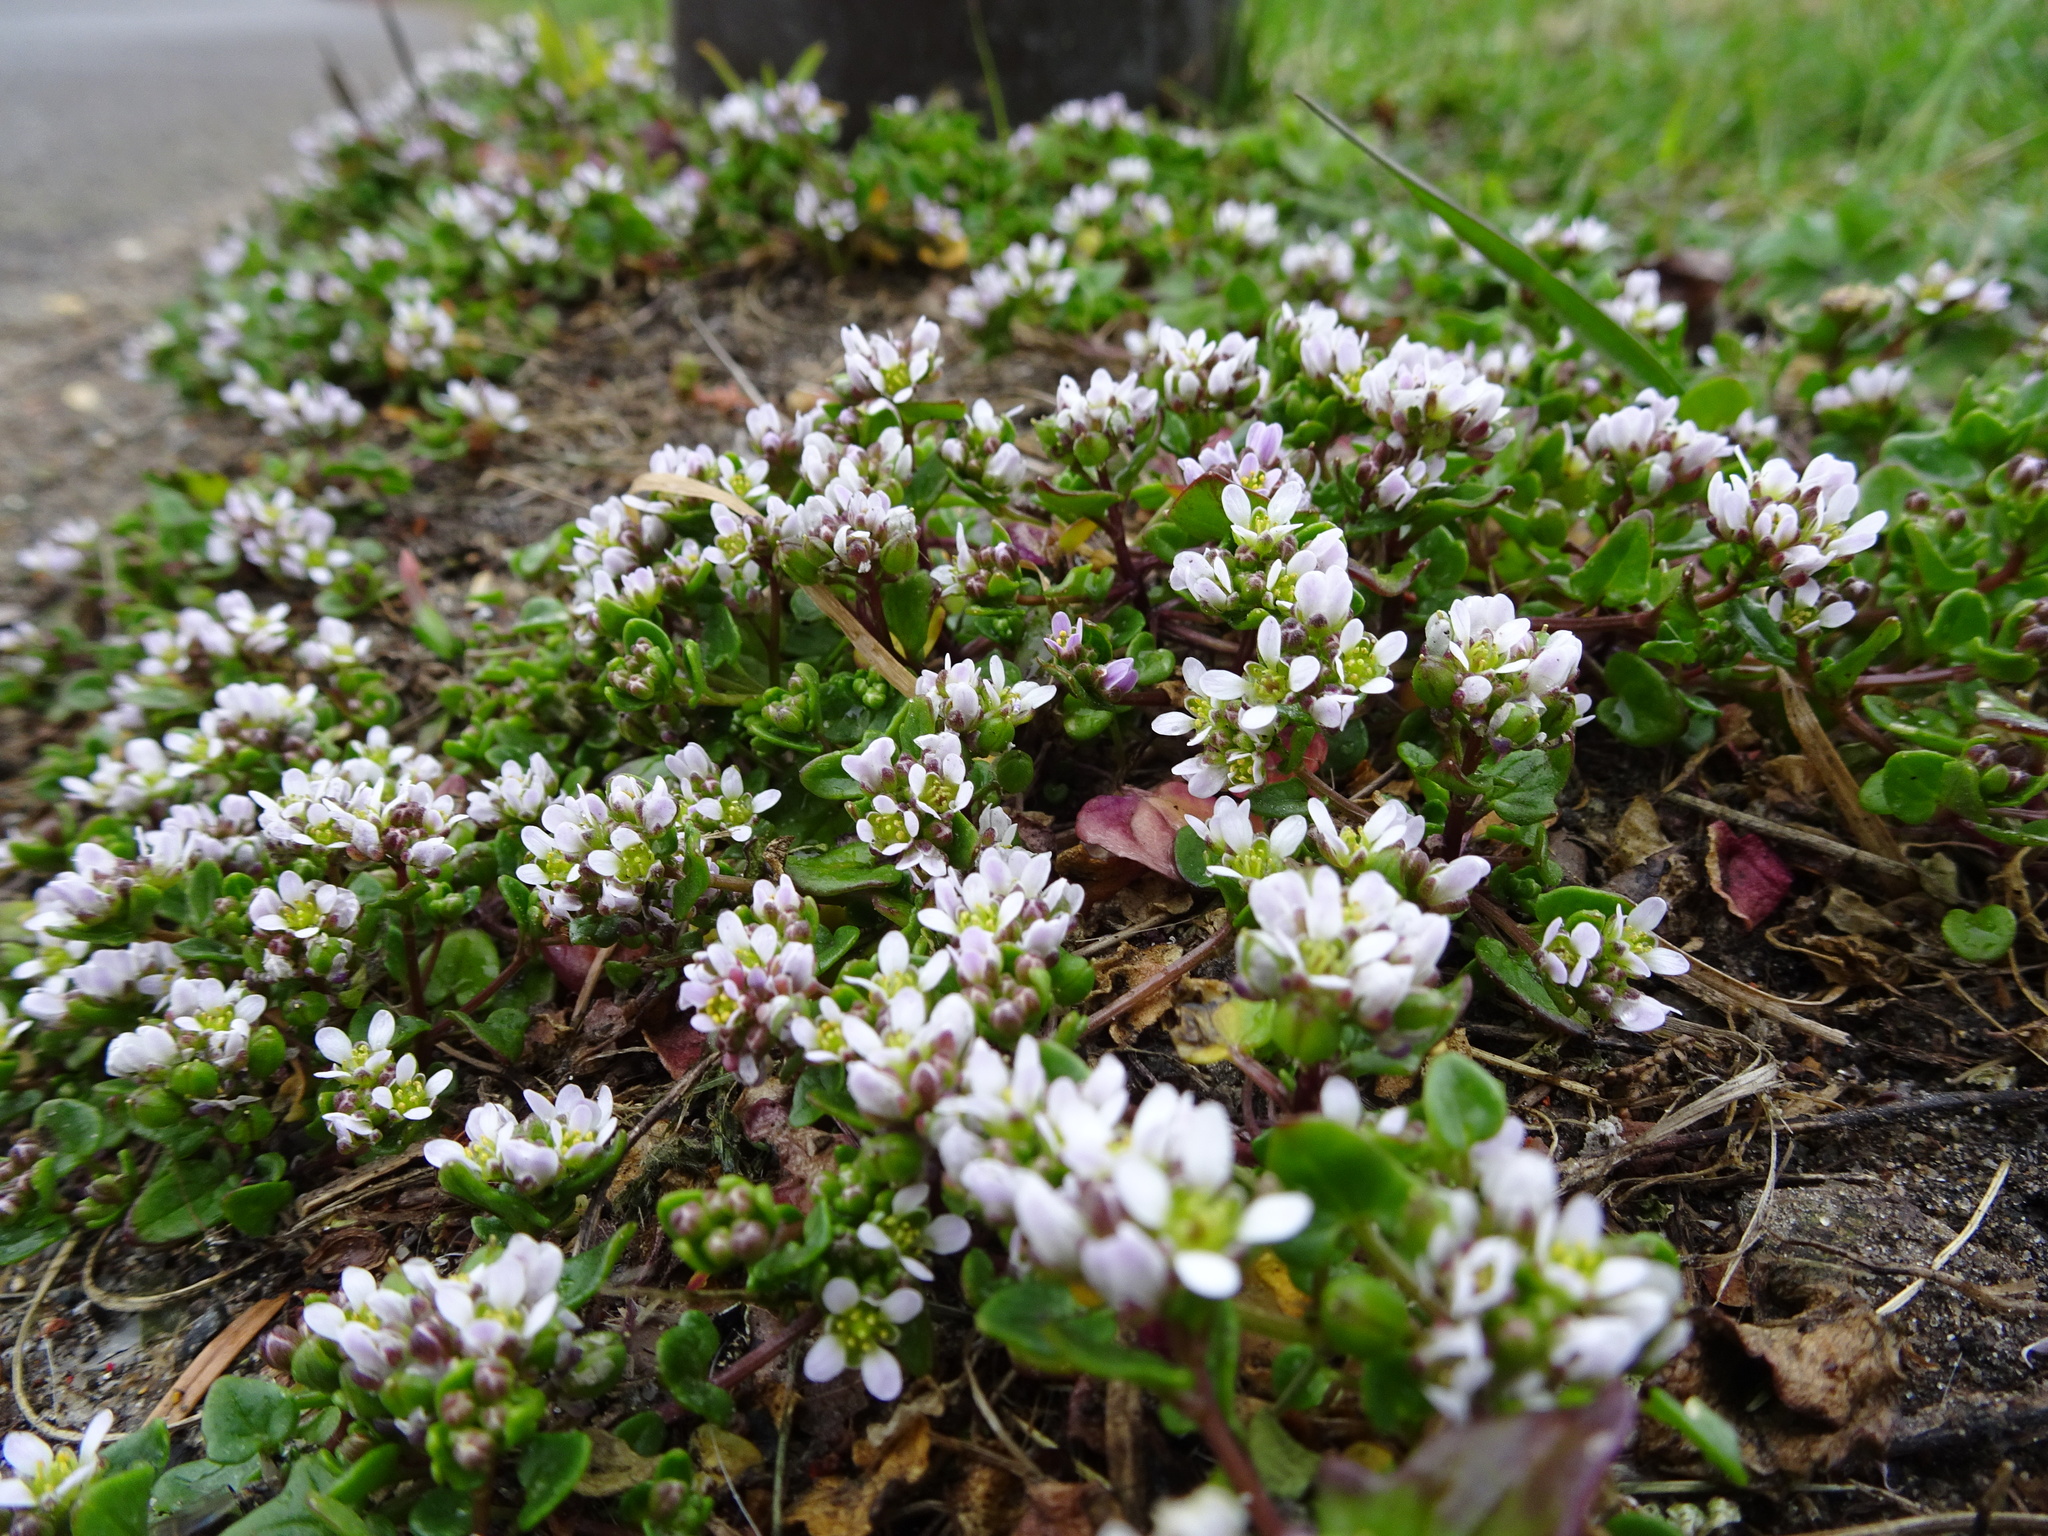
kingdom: Plantae
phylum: Tracheophyta
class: Magnoliopsida
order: Brassicales
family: Brassicaceae
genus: Cochlearia
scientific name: Cochlearia danica
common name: Early scurvygrass
